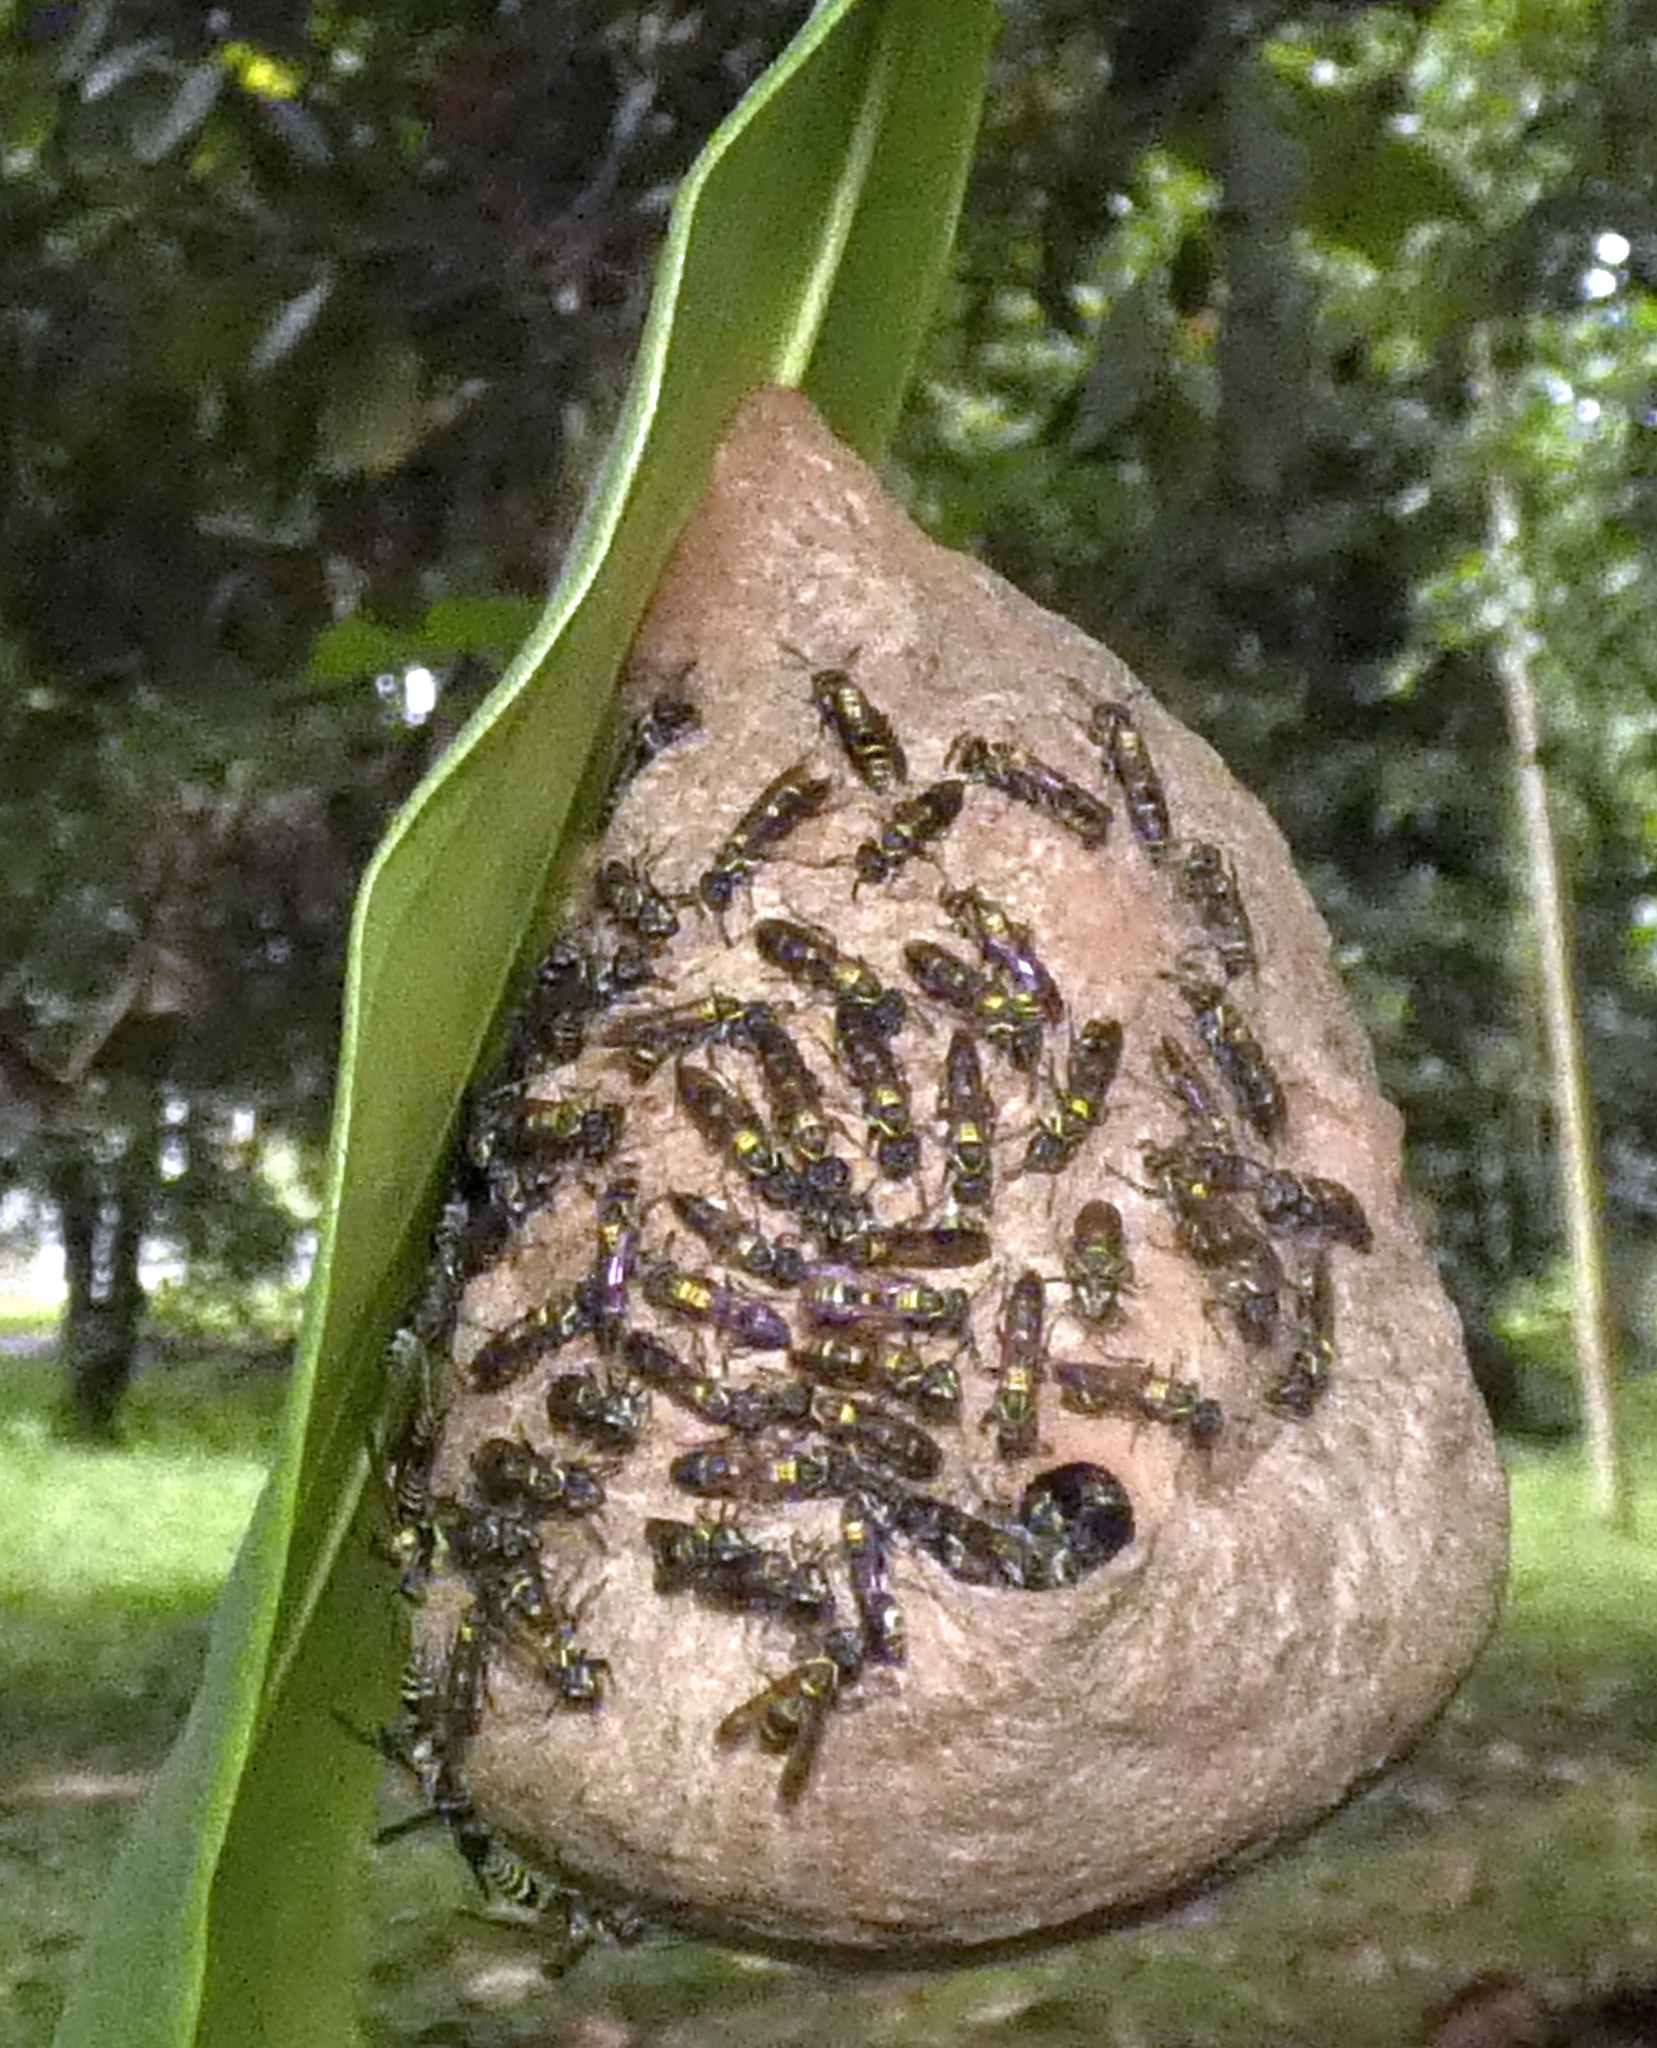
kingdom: Animalia
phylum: Arthropoda
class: Insecta
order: Hymenoptera
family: Eumenidae
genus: Polybia
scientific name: Polybia occidentalis
